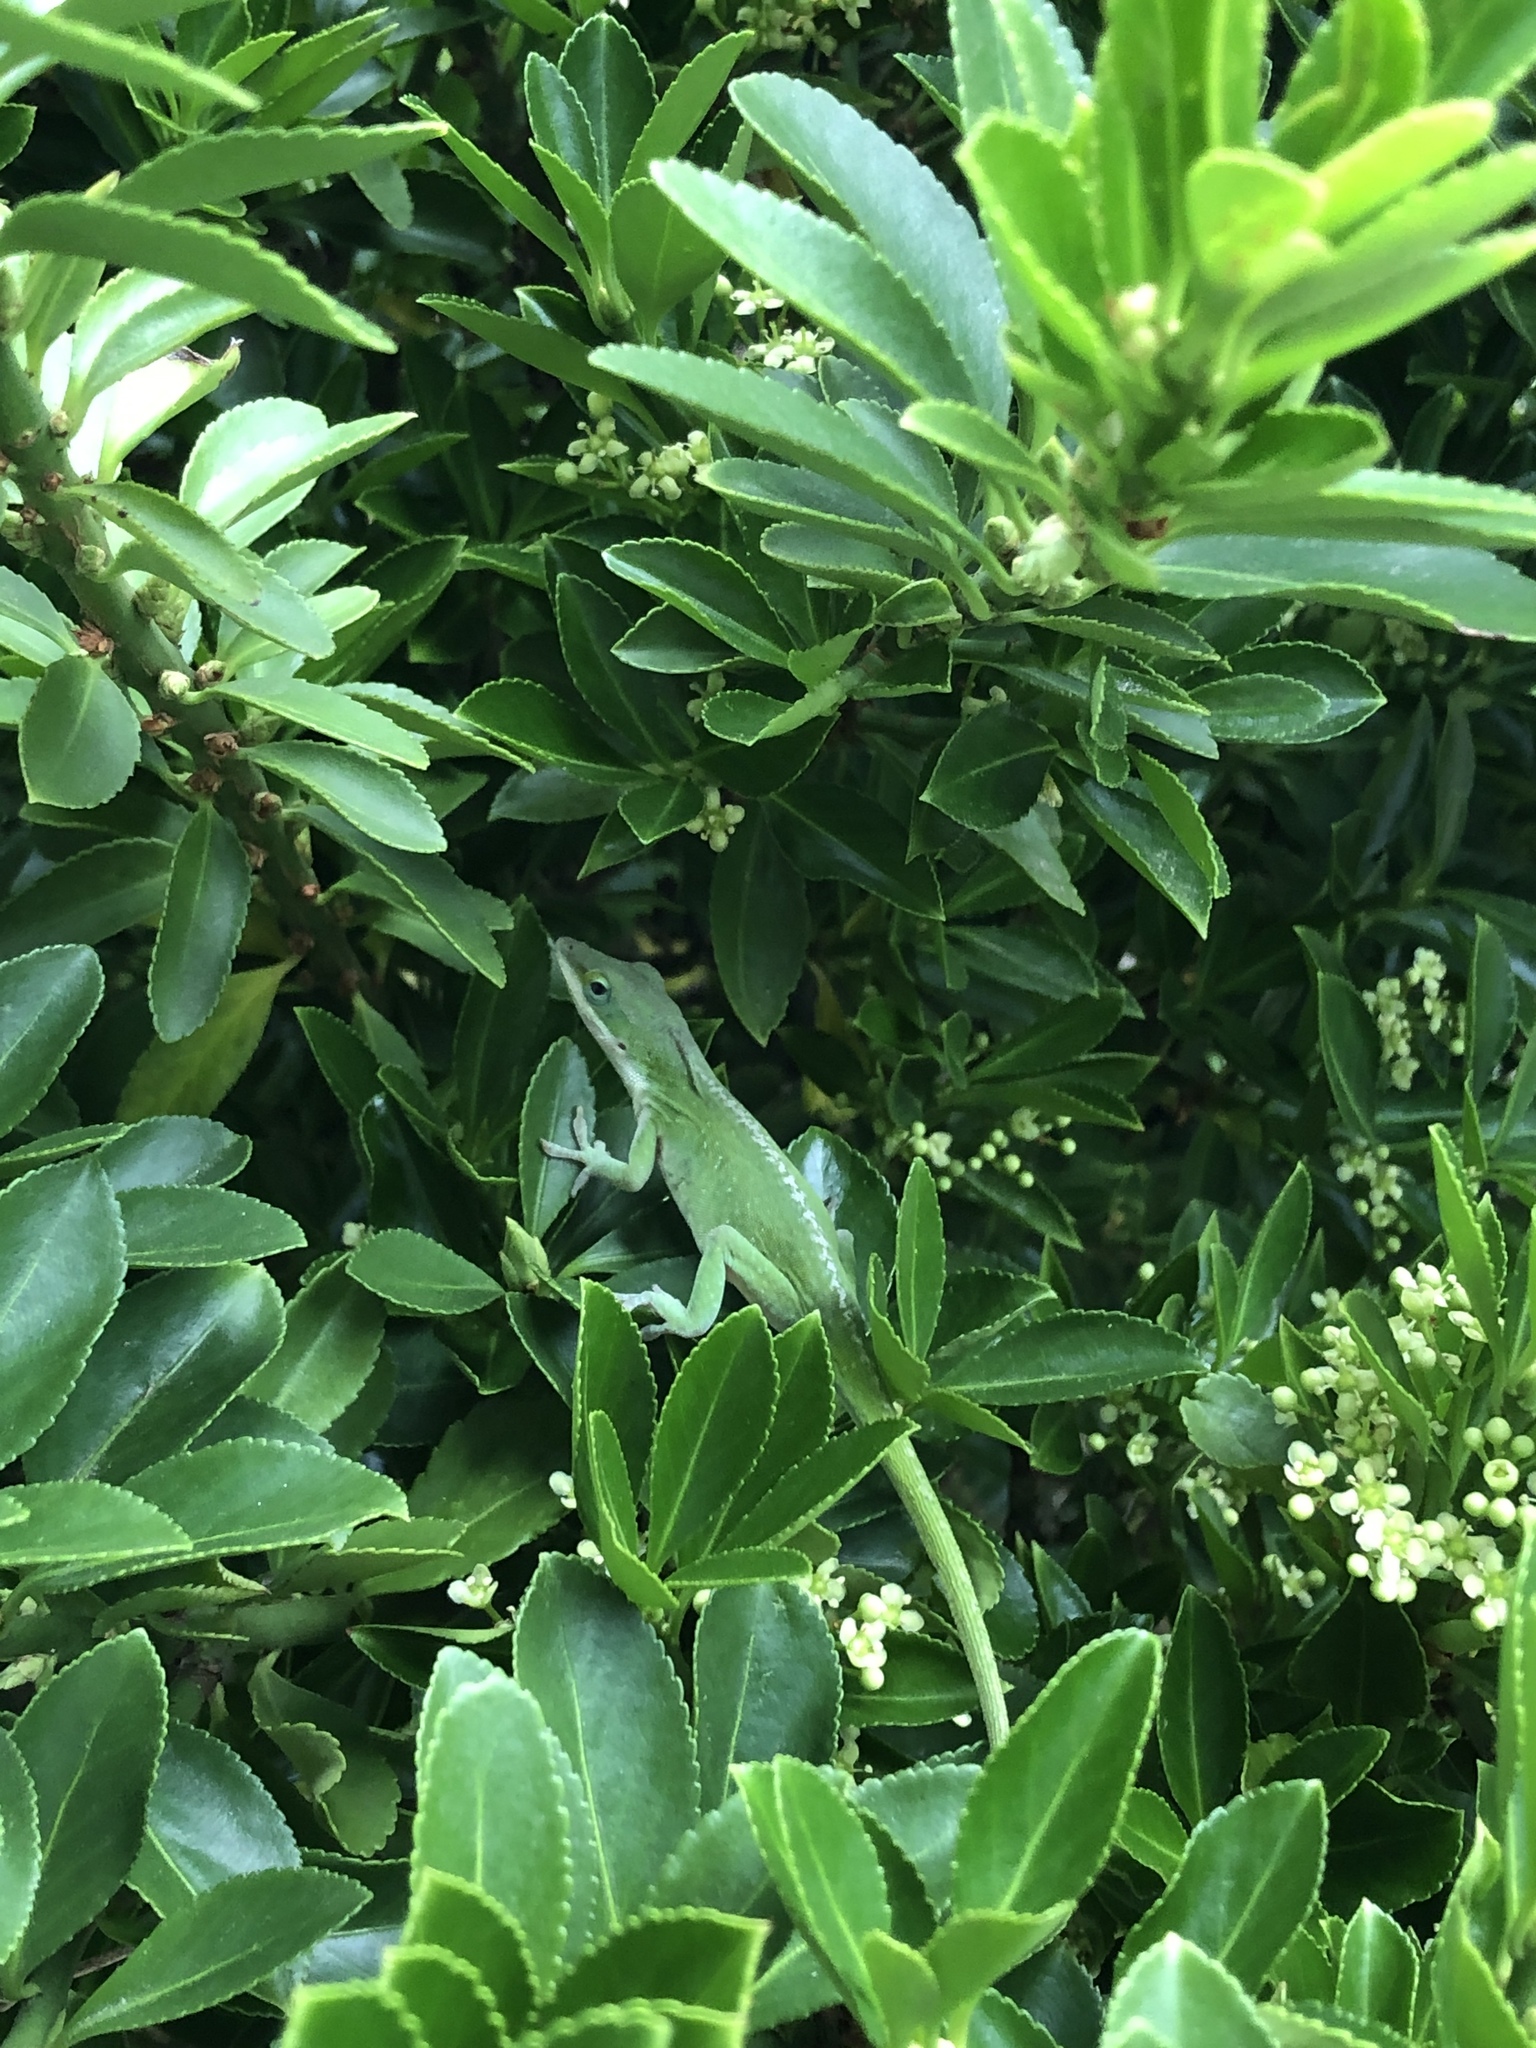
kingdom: Animalia
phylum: Chordata
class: Squamata
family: Dactyloidae
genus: Anolis
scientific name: Anolis carolinensis
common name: Green anole
